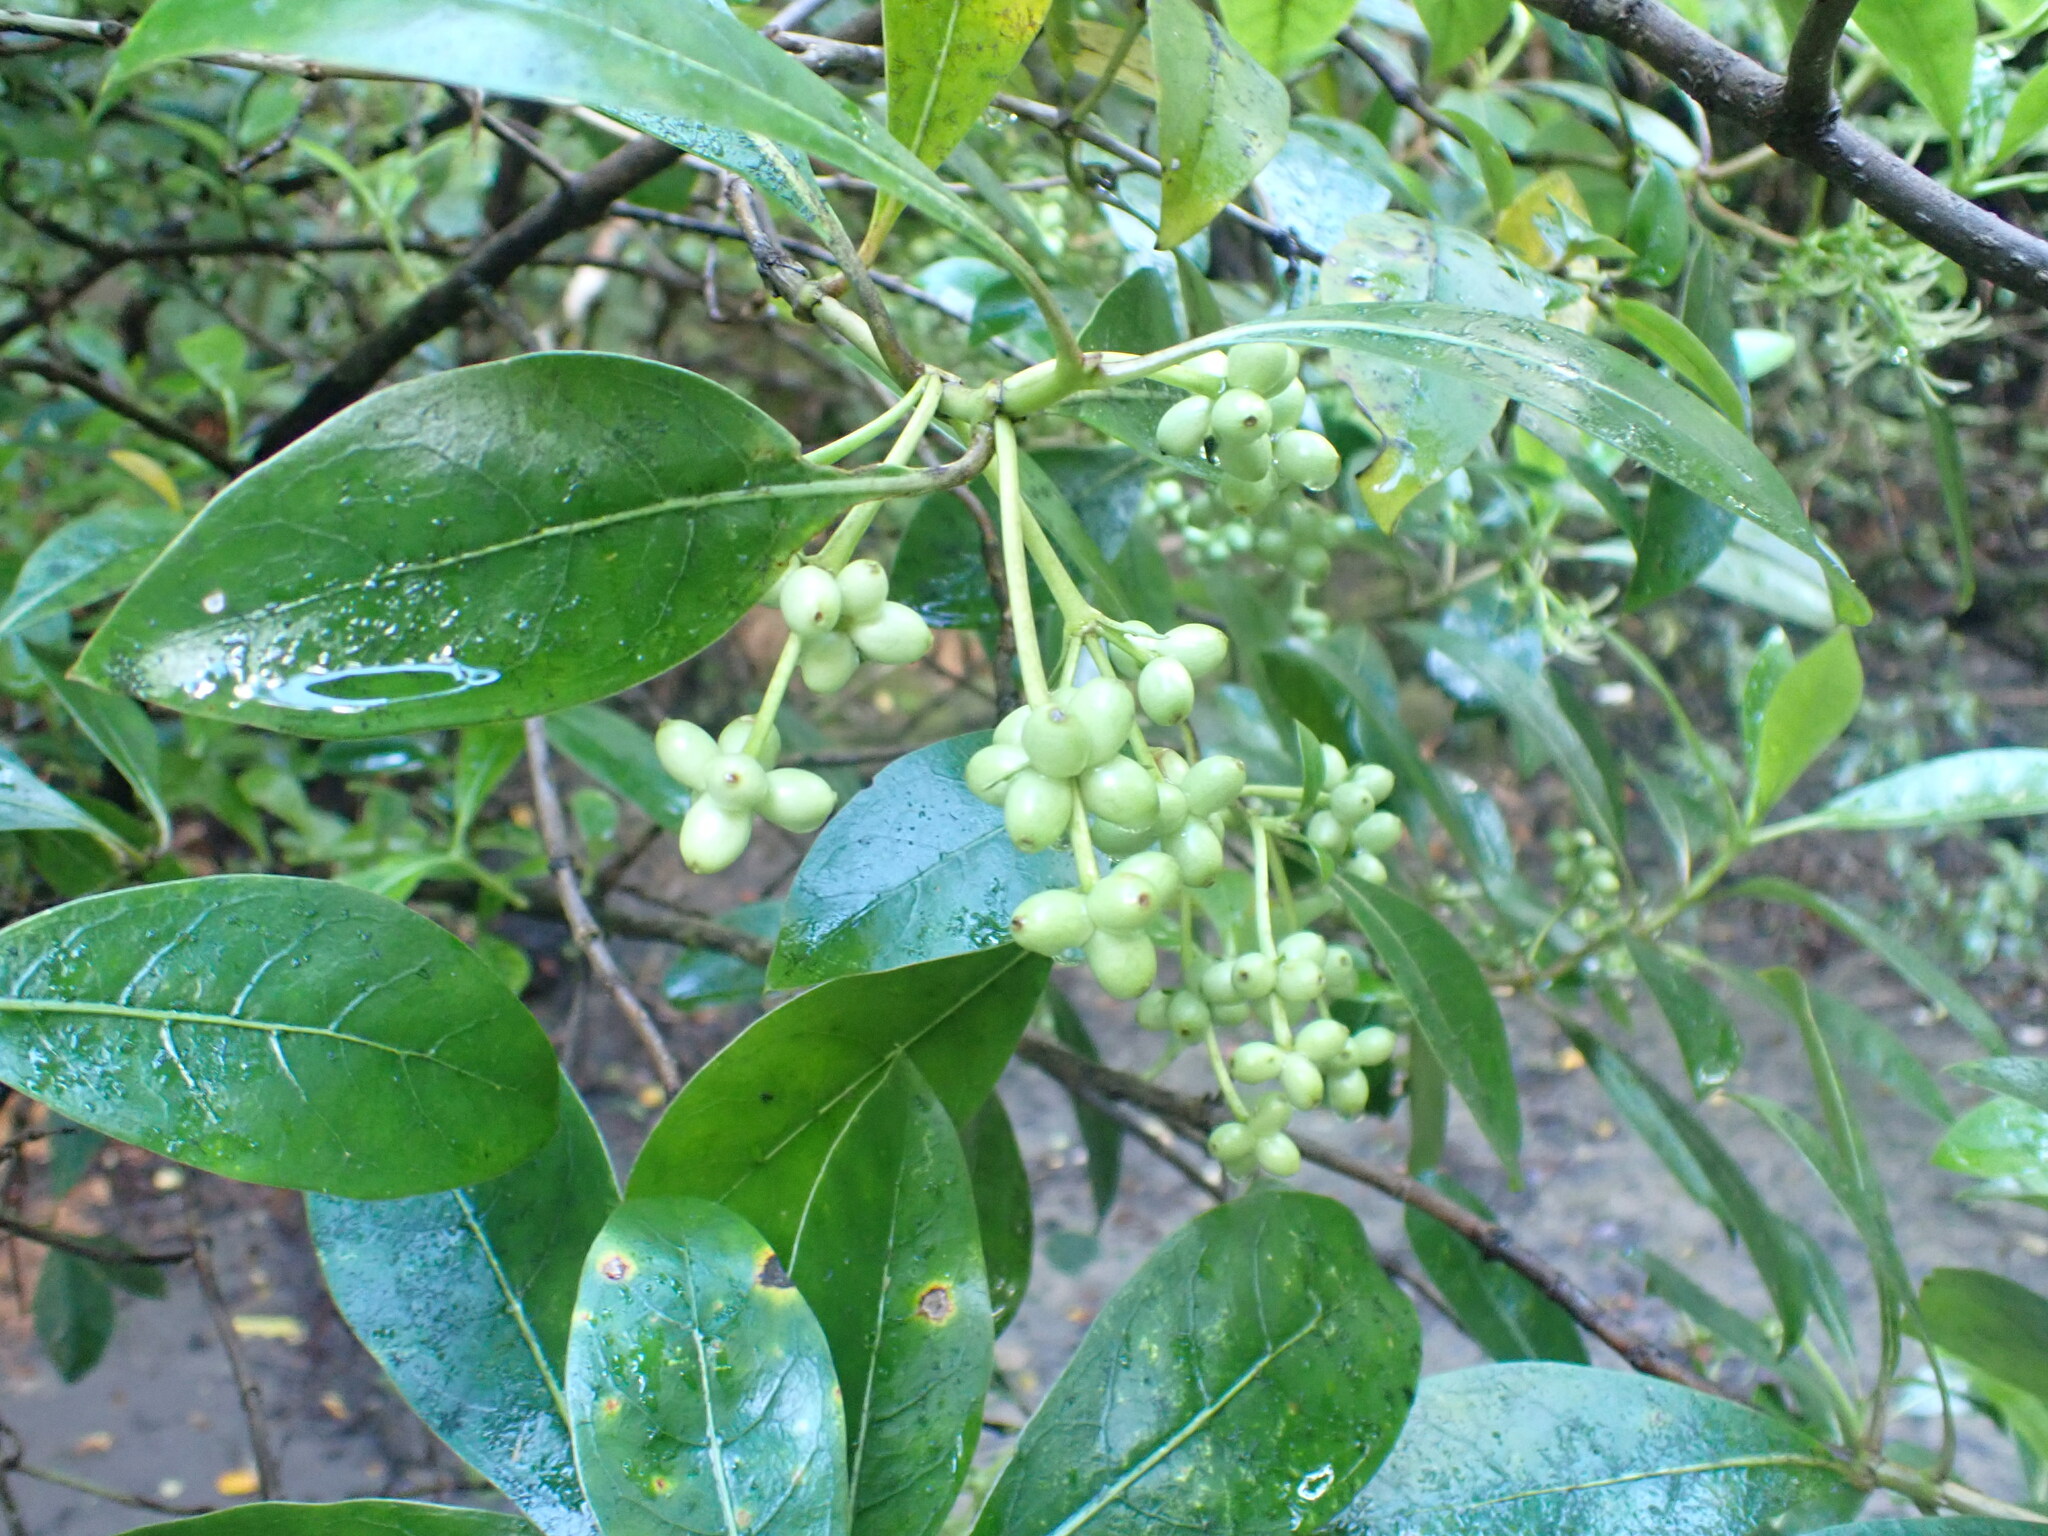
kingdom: Plantae
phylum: Tracheophyta
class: Magnoliopsida
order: Gentianales
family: Rubiaceae
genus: Coprosma
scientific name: Coprosma lucida
